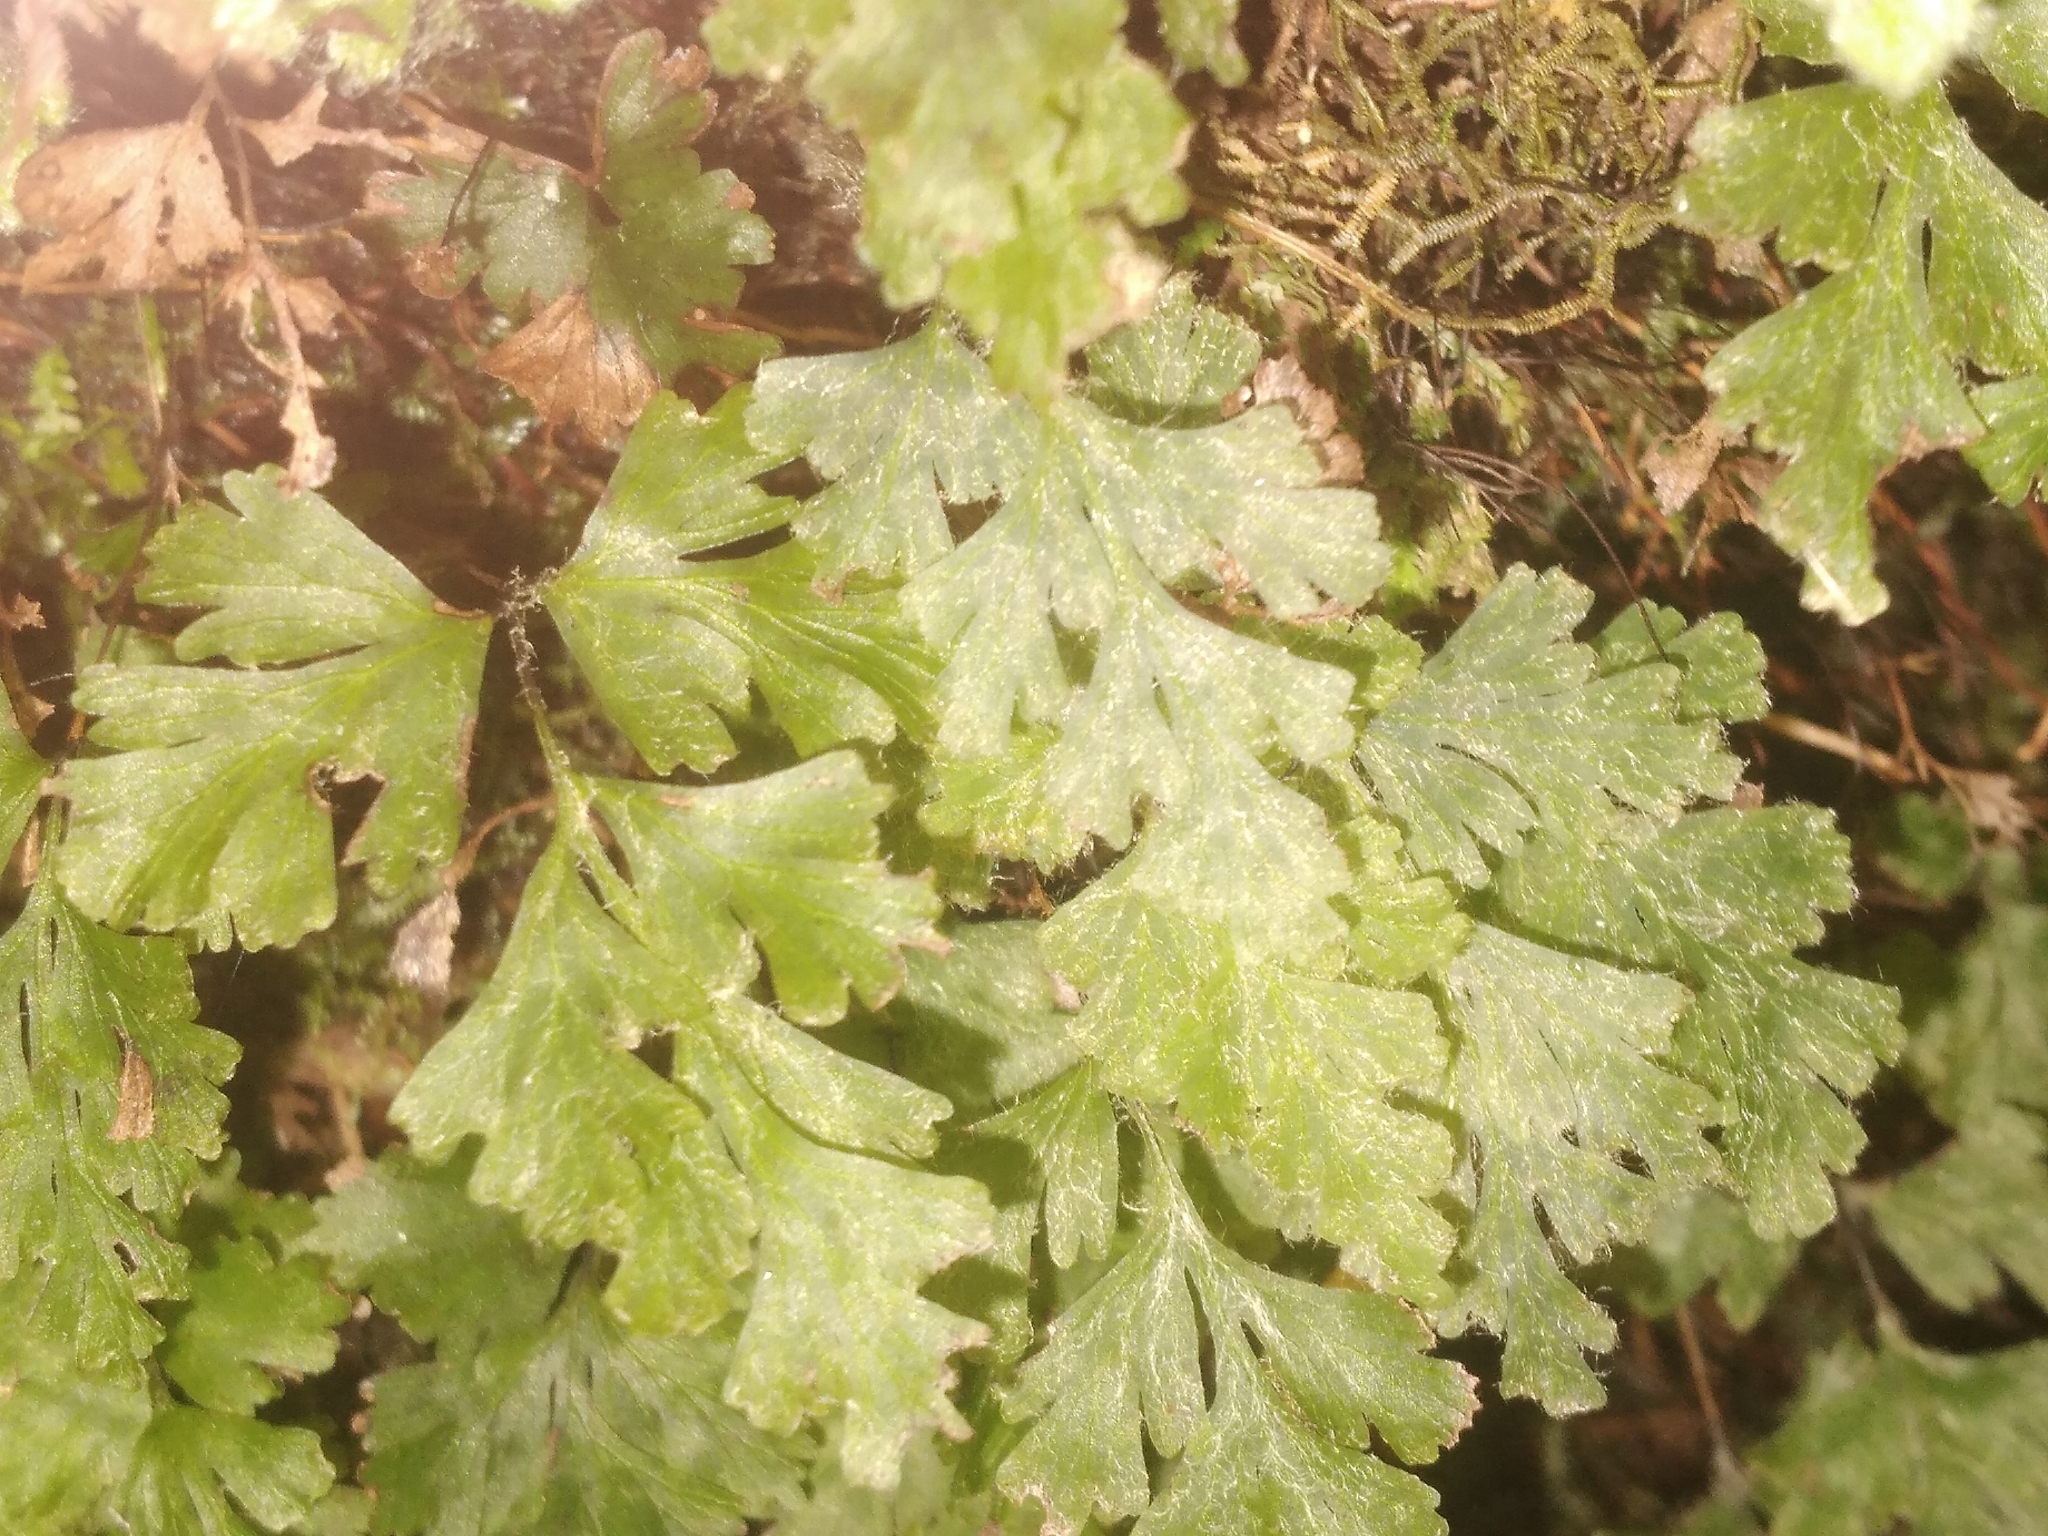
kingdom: Plantae
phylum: Tracheophyta
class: Polypodiopsida
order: Hymenophyllales
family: Hymenophyllaceae
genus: Hymenophyllum
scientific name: Hymenophyllum rufescens
